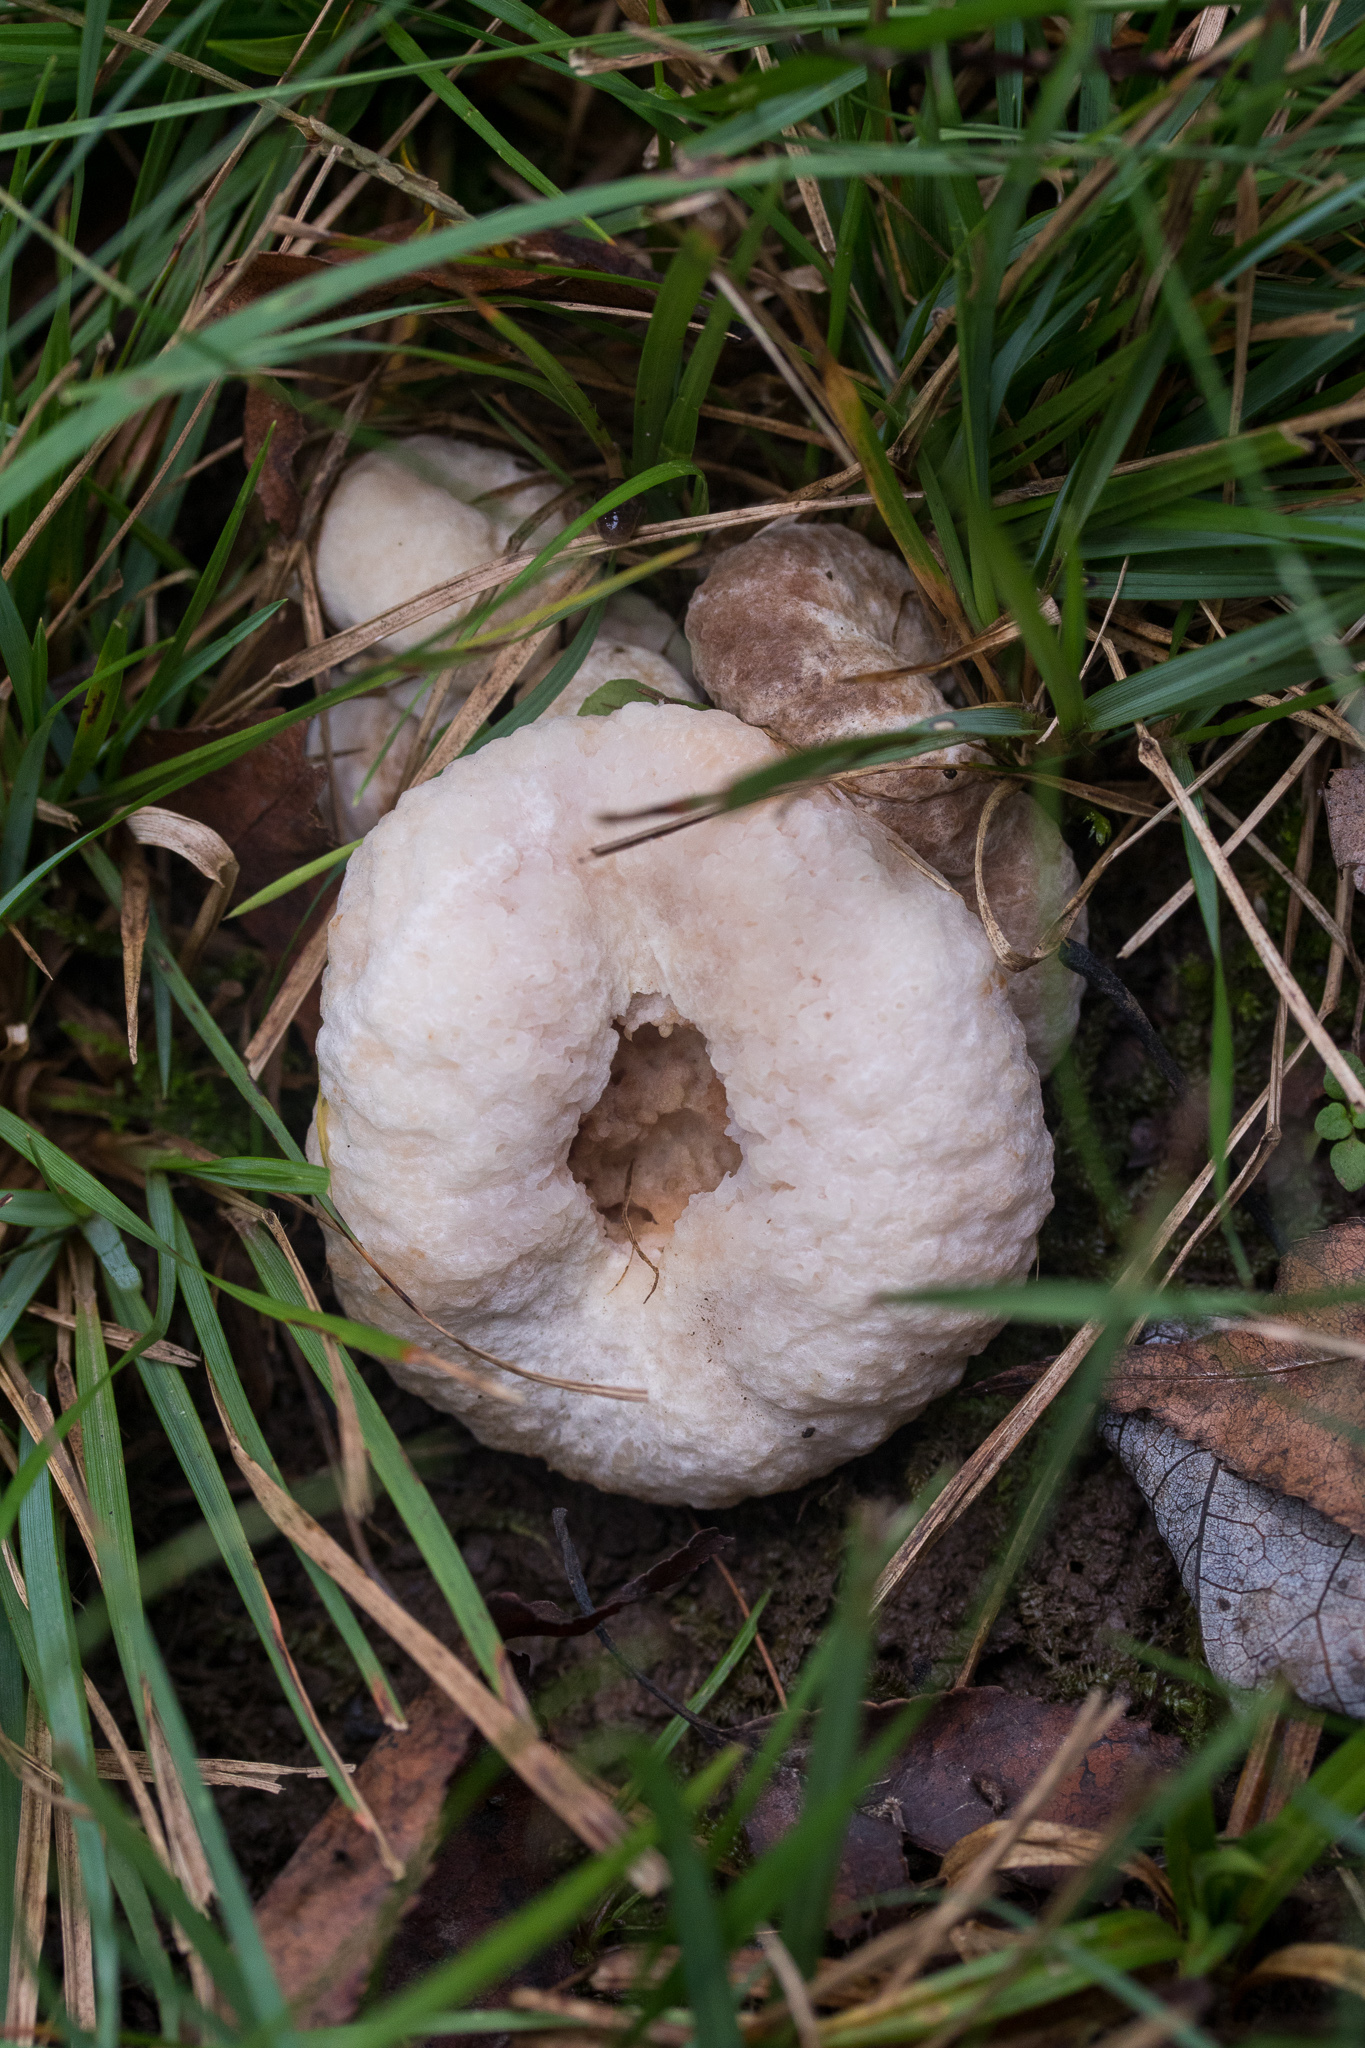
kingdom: Fungi
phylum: Basidiomycota
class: Agaricomycetes
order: Agaricales
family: Entolomataceae
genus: Entoloma
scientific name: Entoloma abortivum
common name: Aborted entoloma
